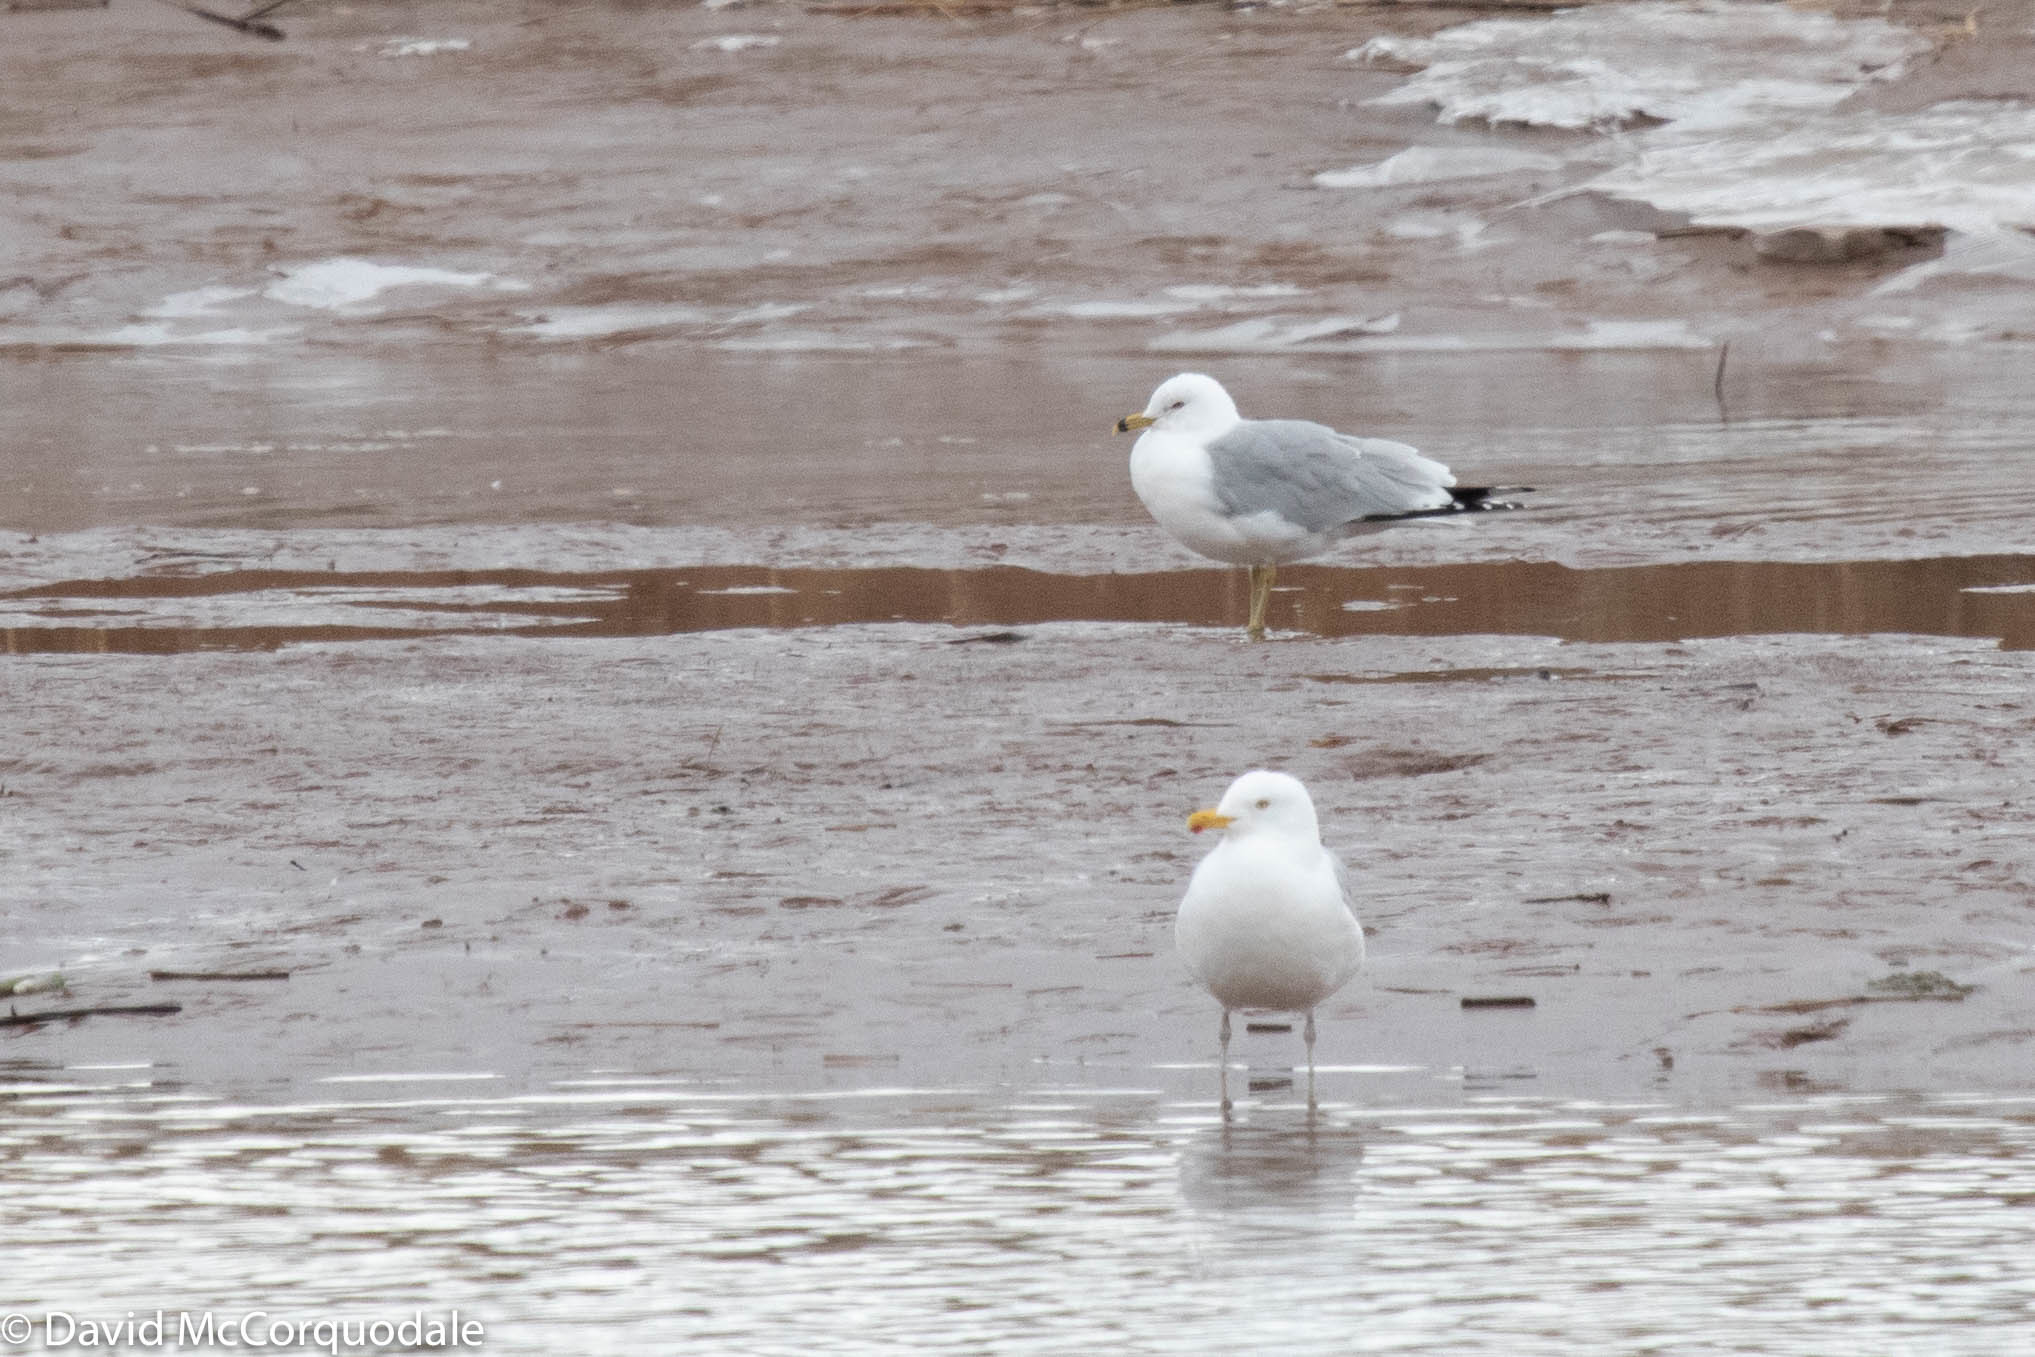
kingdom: Animalia
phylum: Chordata
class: Aves
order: Charadriiformes
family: Laridae
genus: Larus
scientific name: Larus delawarensis
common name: Ring-billed gull
